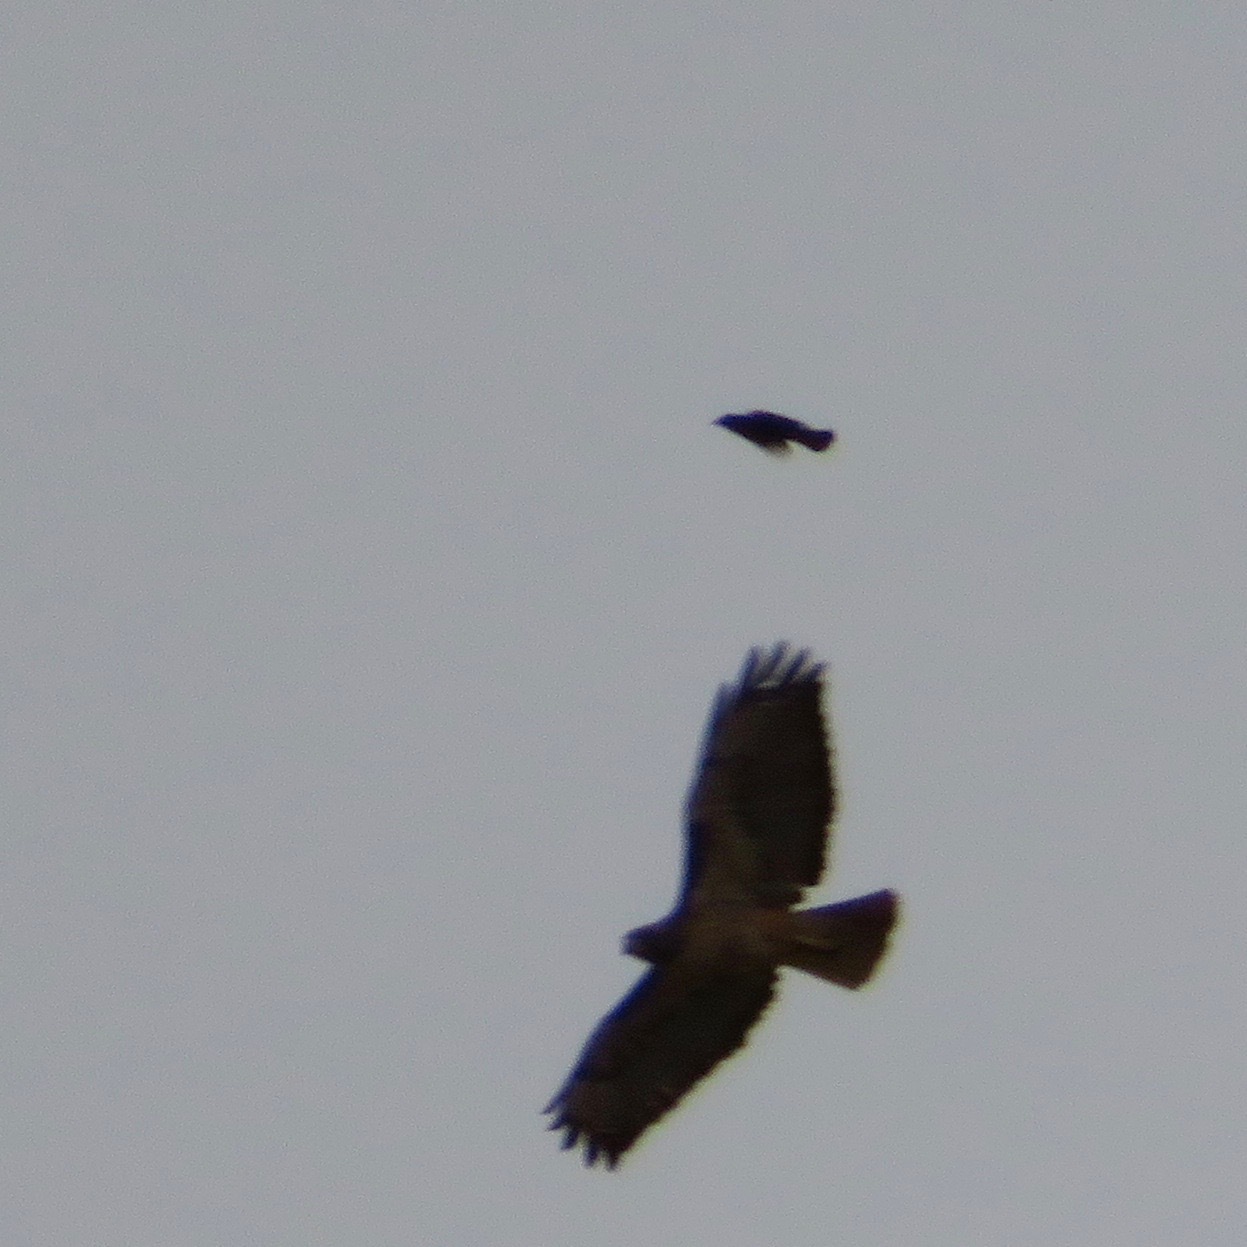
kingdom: Animalia
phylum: Chordata
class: Aves
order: Accipitriformes
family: Accipitridae
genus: Buteo
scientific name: Buteo jamaicensis
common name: Red-tailed hawk
